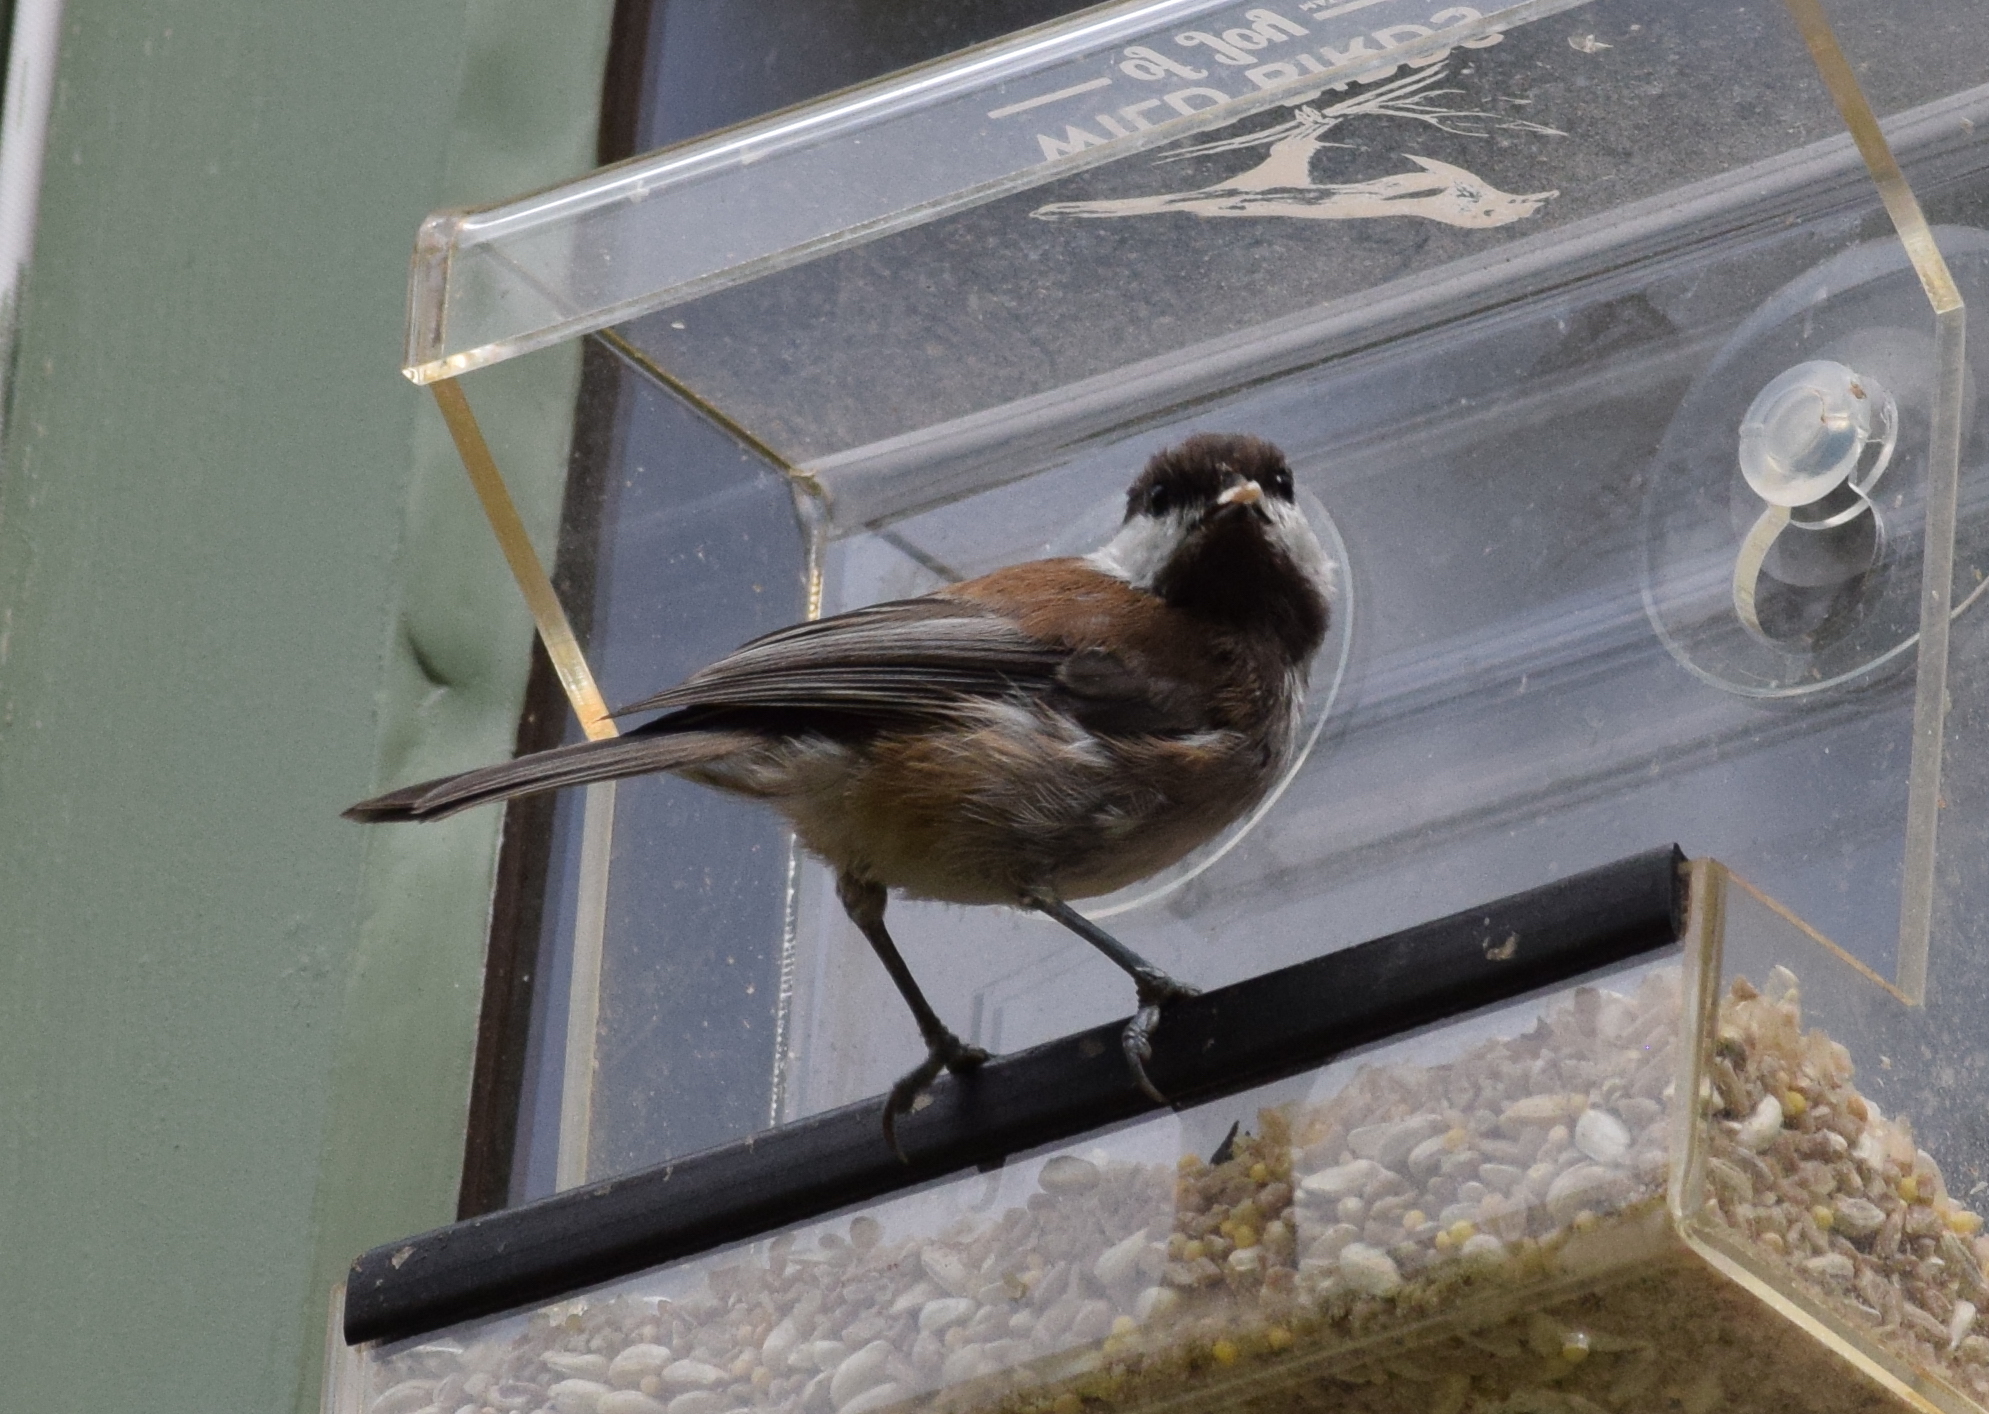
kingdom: Animalia
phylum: Chordata
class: Aves
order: Passeriformes
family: Paridae
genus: Poecile
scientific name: Poecile rufescens
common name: Chestnut-backed chickadee
